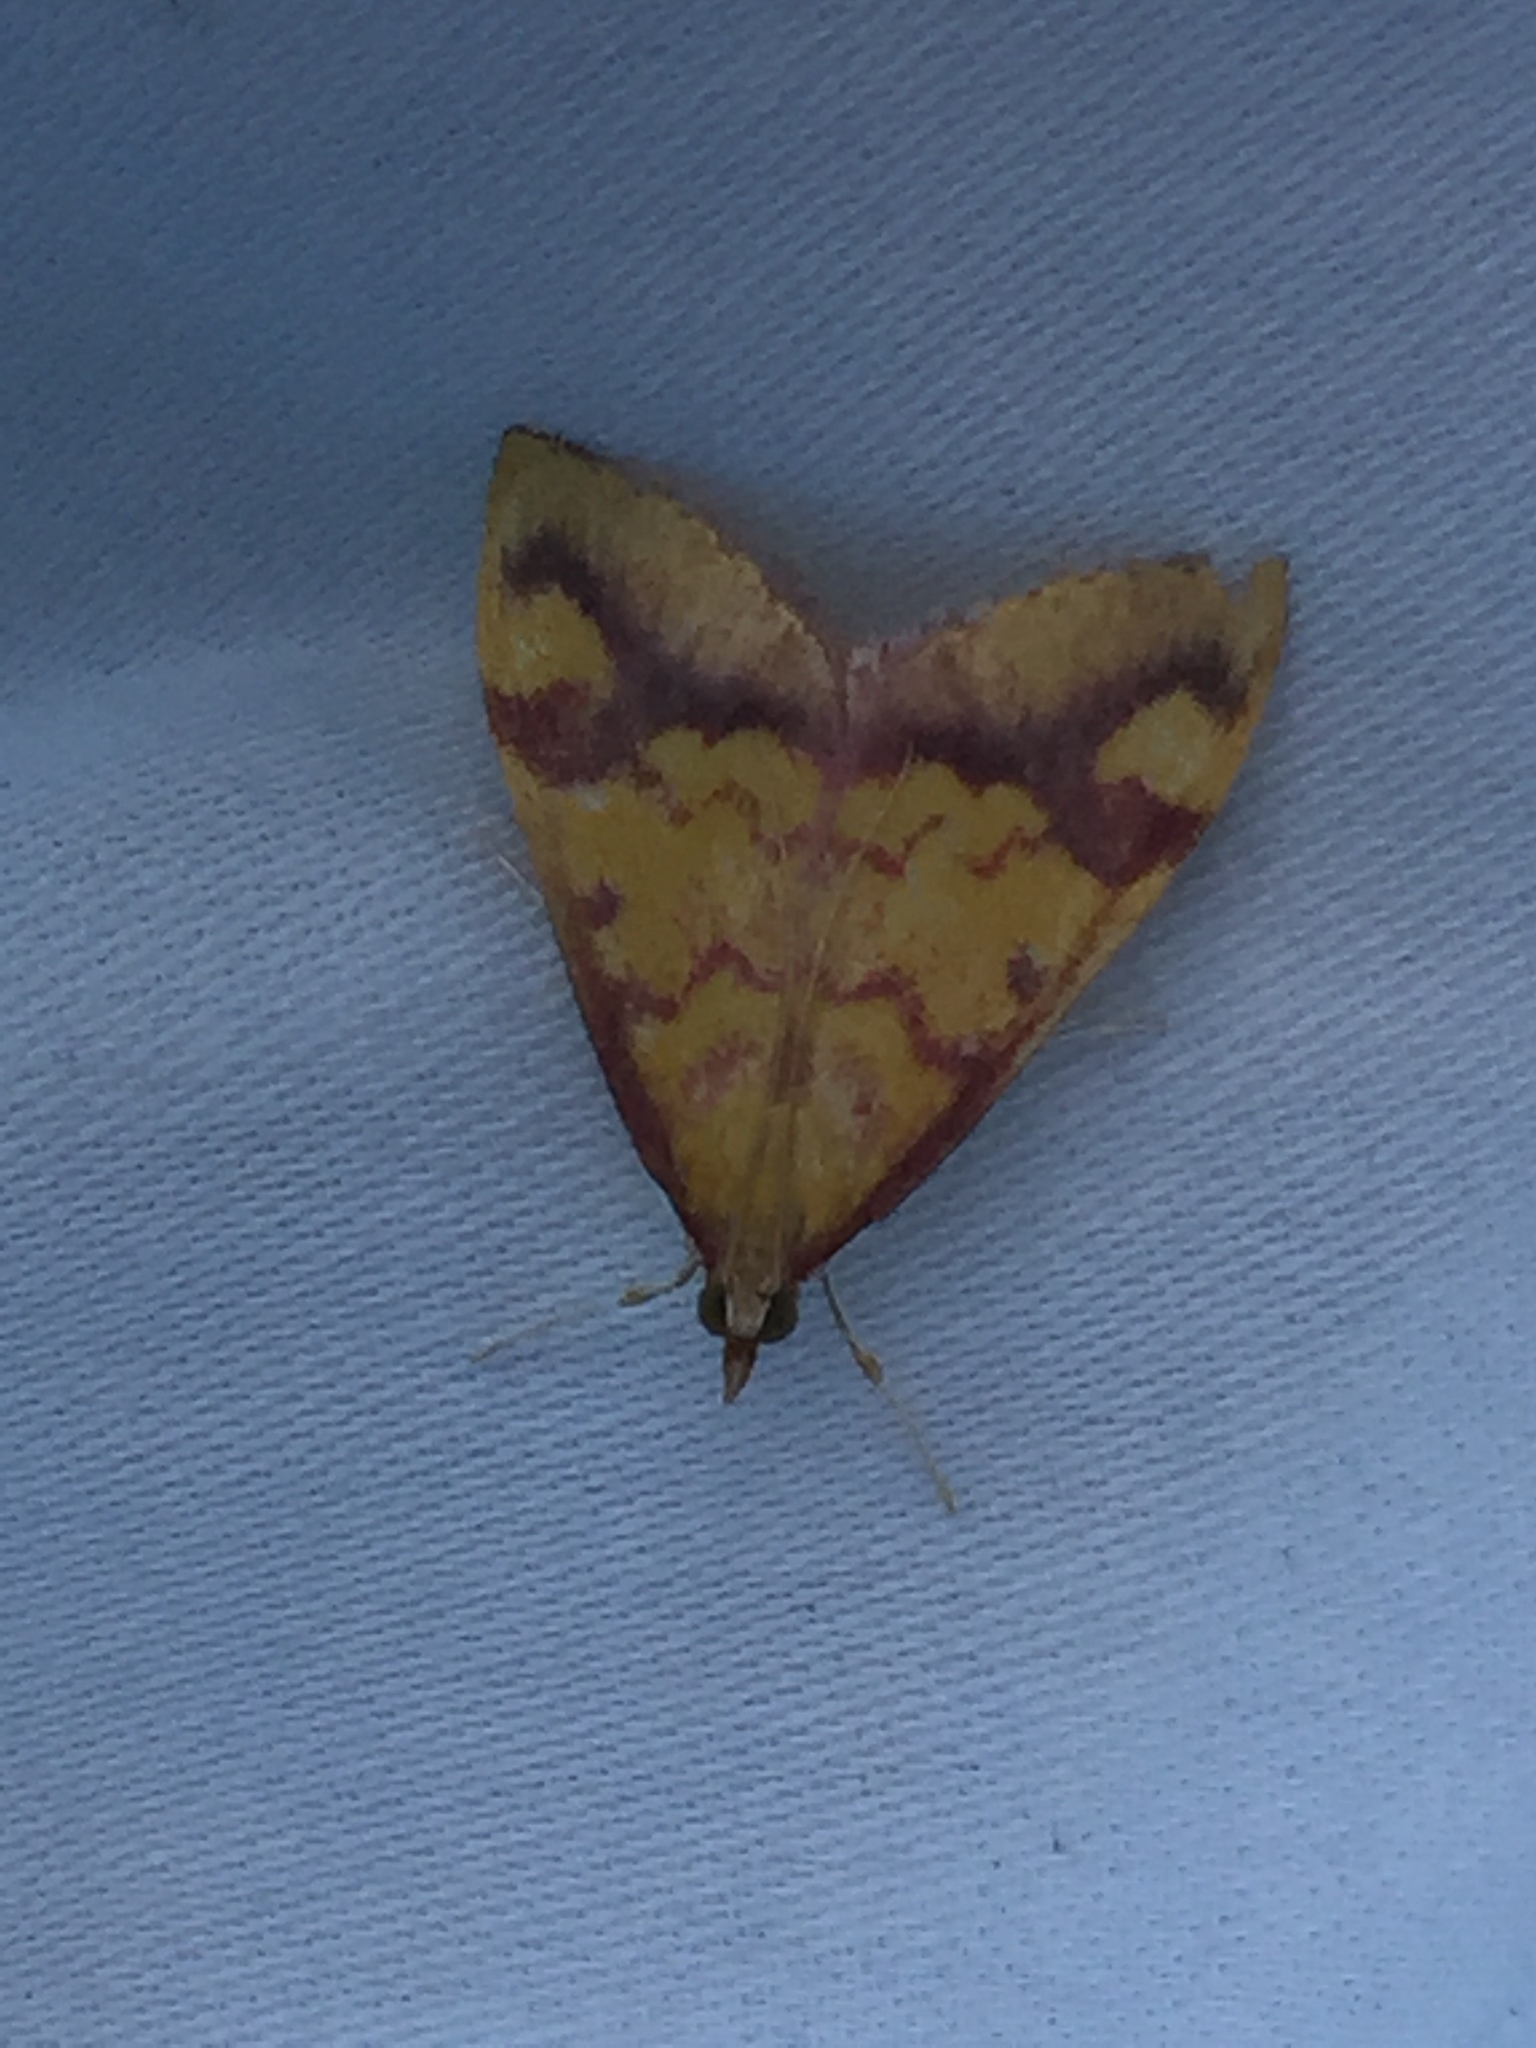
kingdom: Animalia
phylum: Arthropoda
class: Insecta
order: Lepidoptera
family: Crambidae
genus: Pyrausta
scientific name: Pyrausta perrubralis
